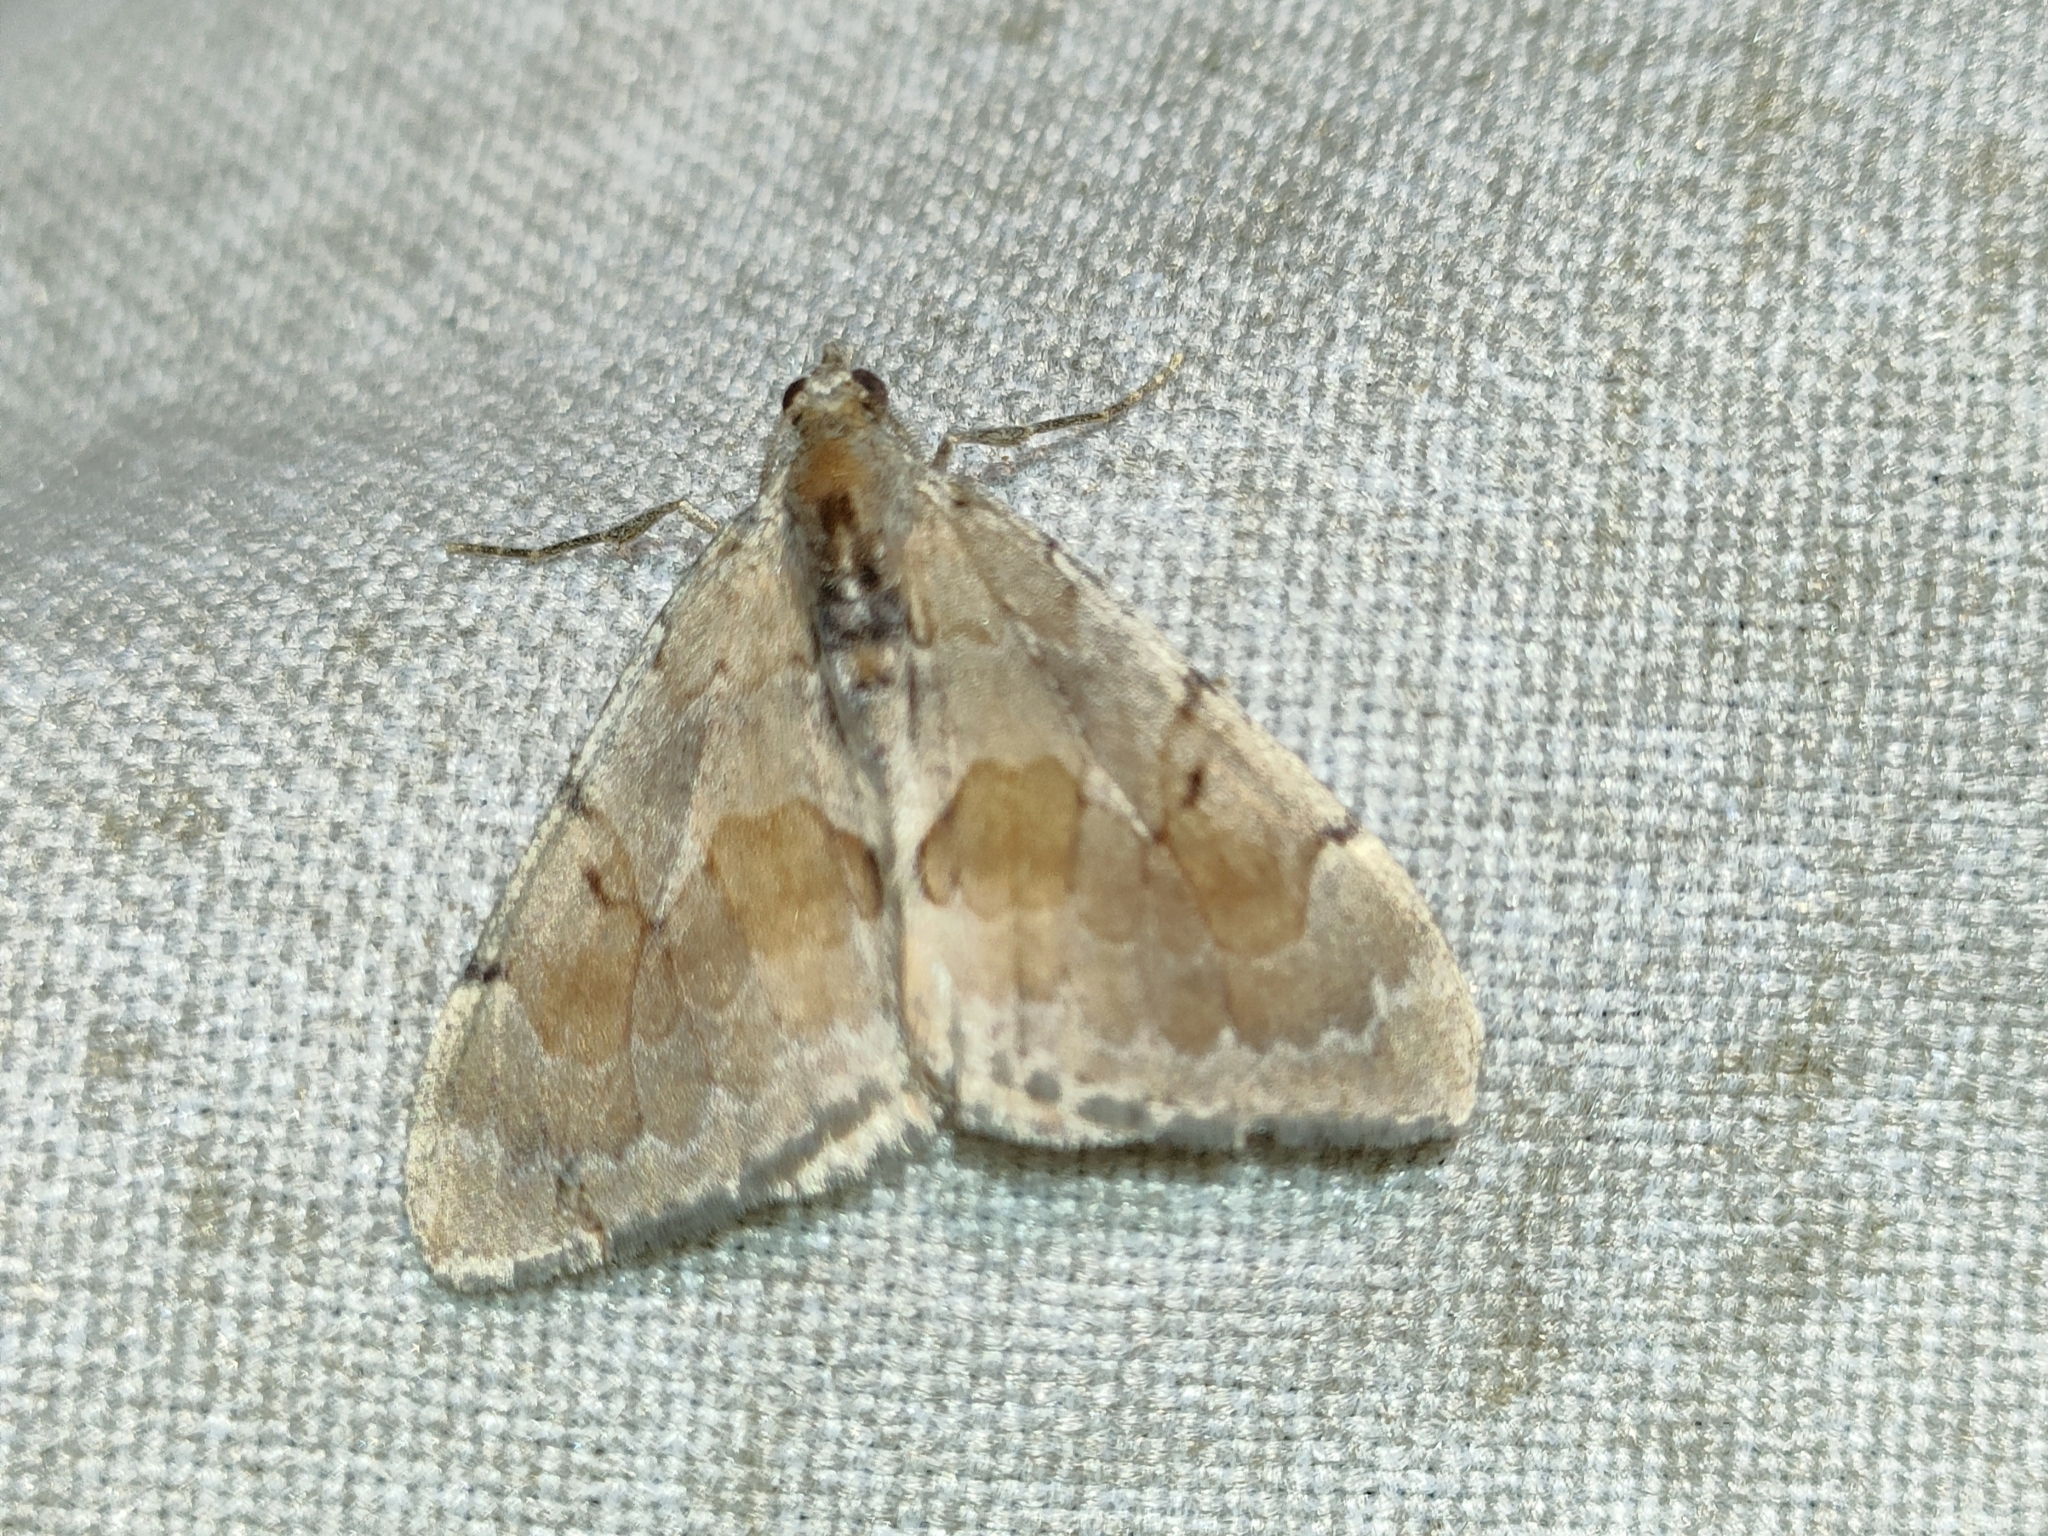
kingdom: Animalia
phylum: Arthropoda
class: Insecta
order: Lepidoptera
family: Geometridae
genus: Pennithera
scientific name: Pennithera firmata
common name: Pine carpet
